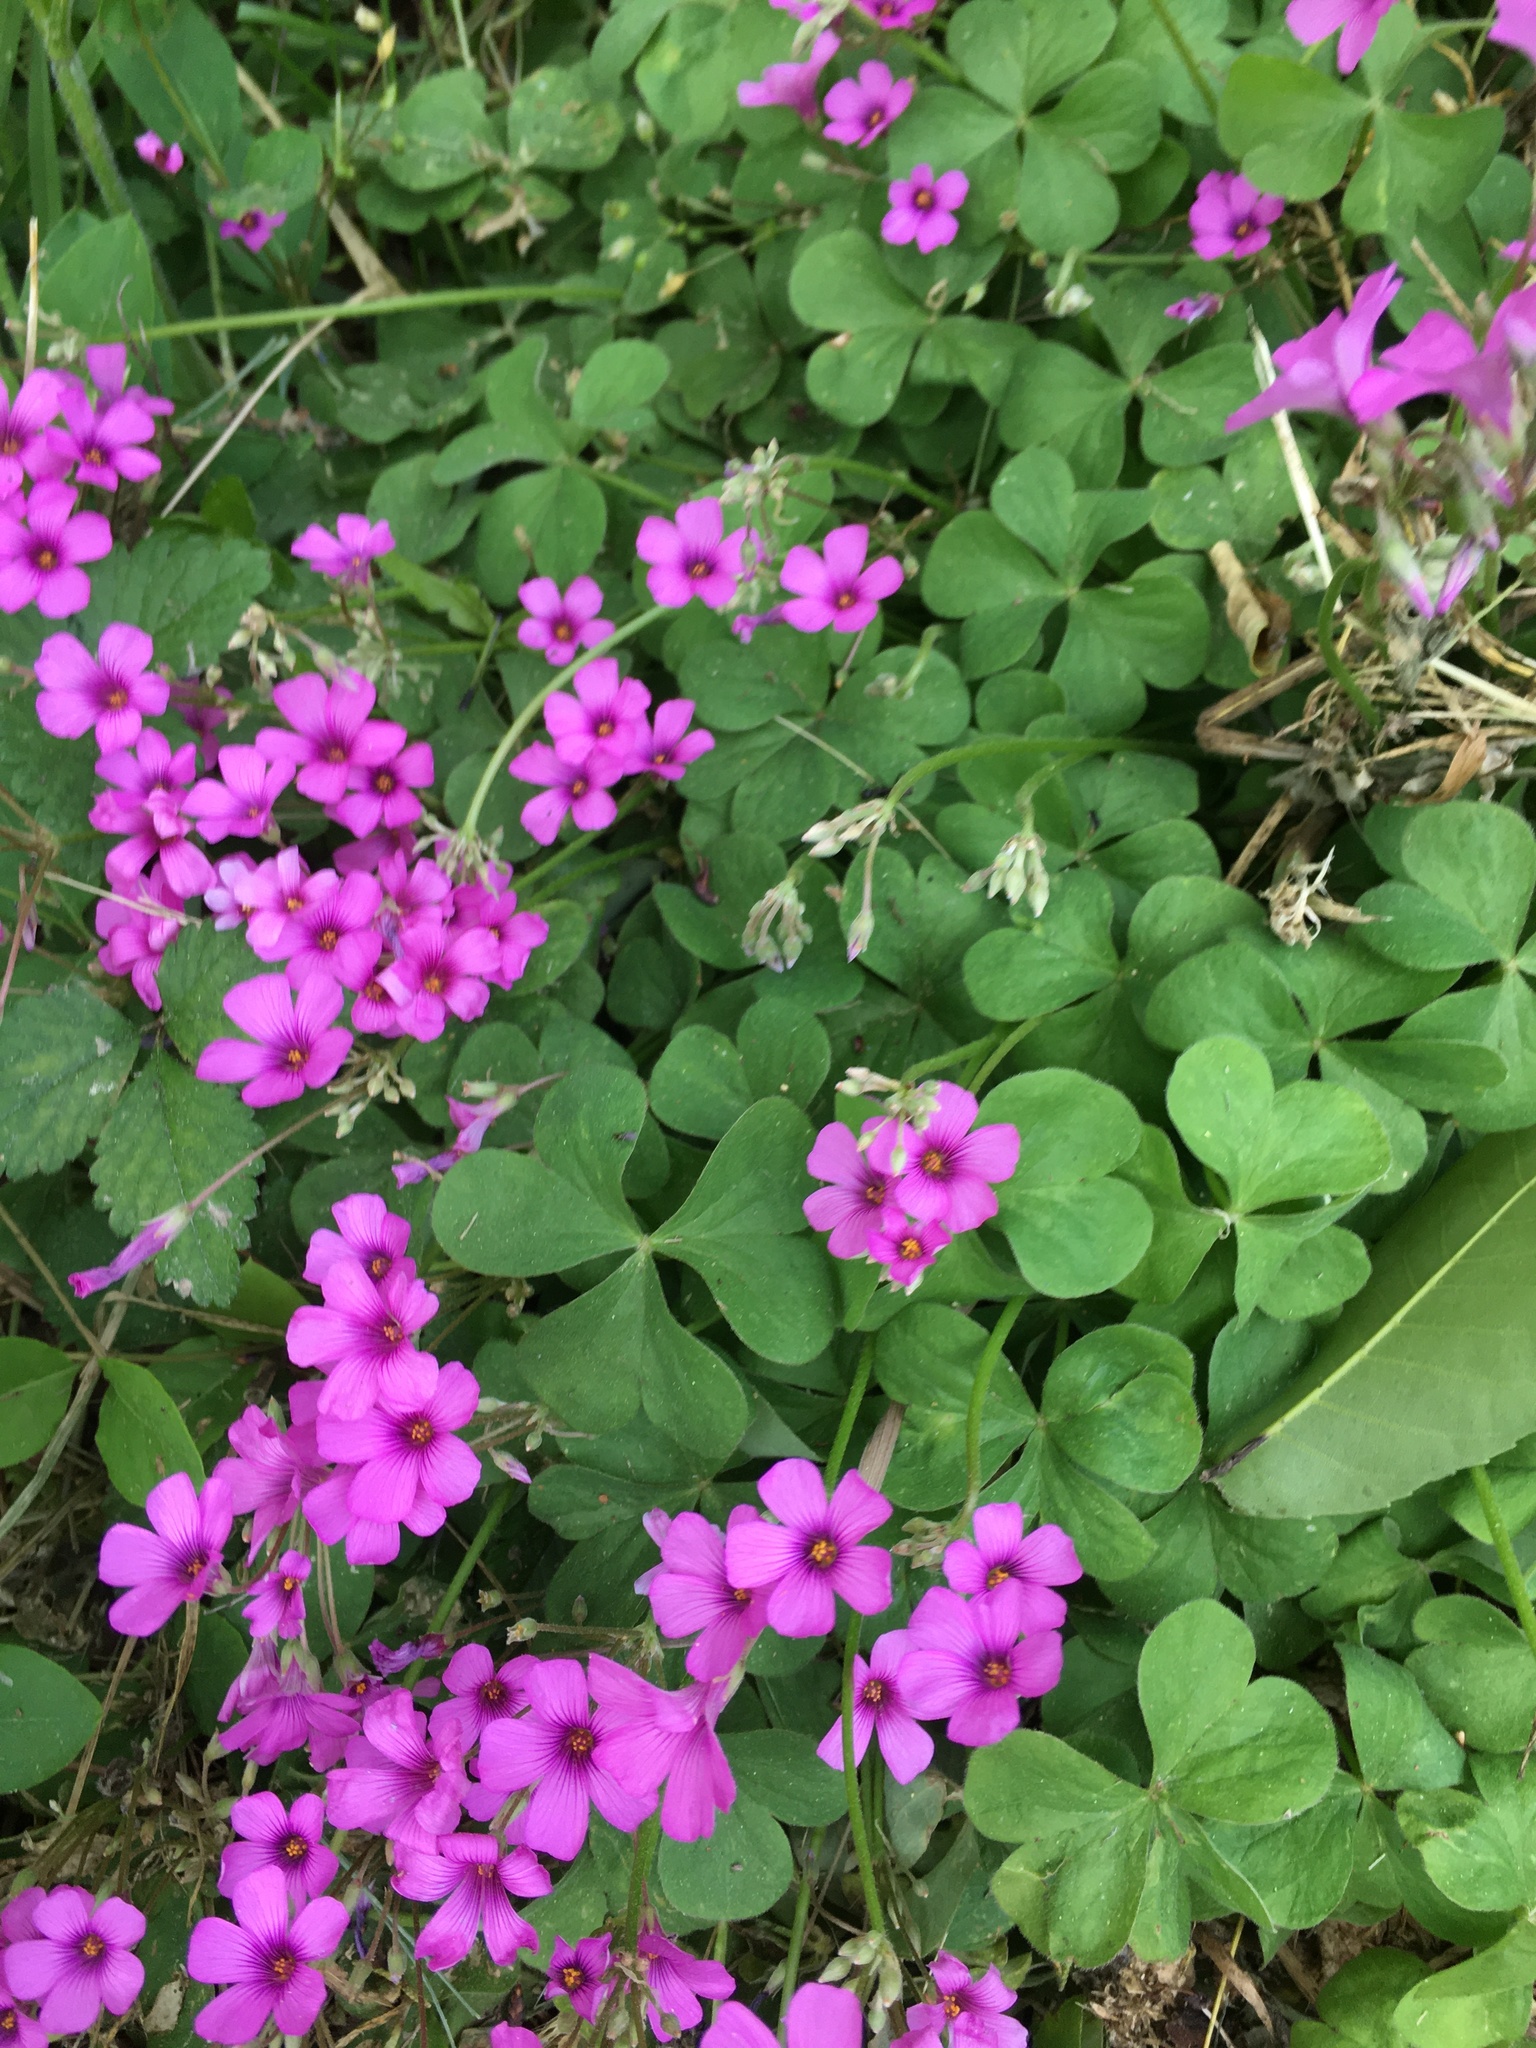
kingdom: Plantae
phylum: Tracheophyta
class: Magnoliopsida
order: Oxalidales
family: Oxalidaceae
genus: Oxalis
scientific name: Oxalis articulata
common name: Pink-sorrel
